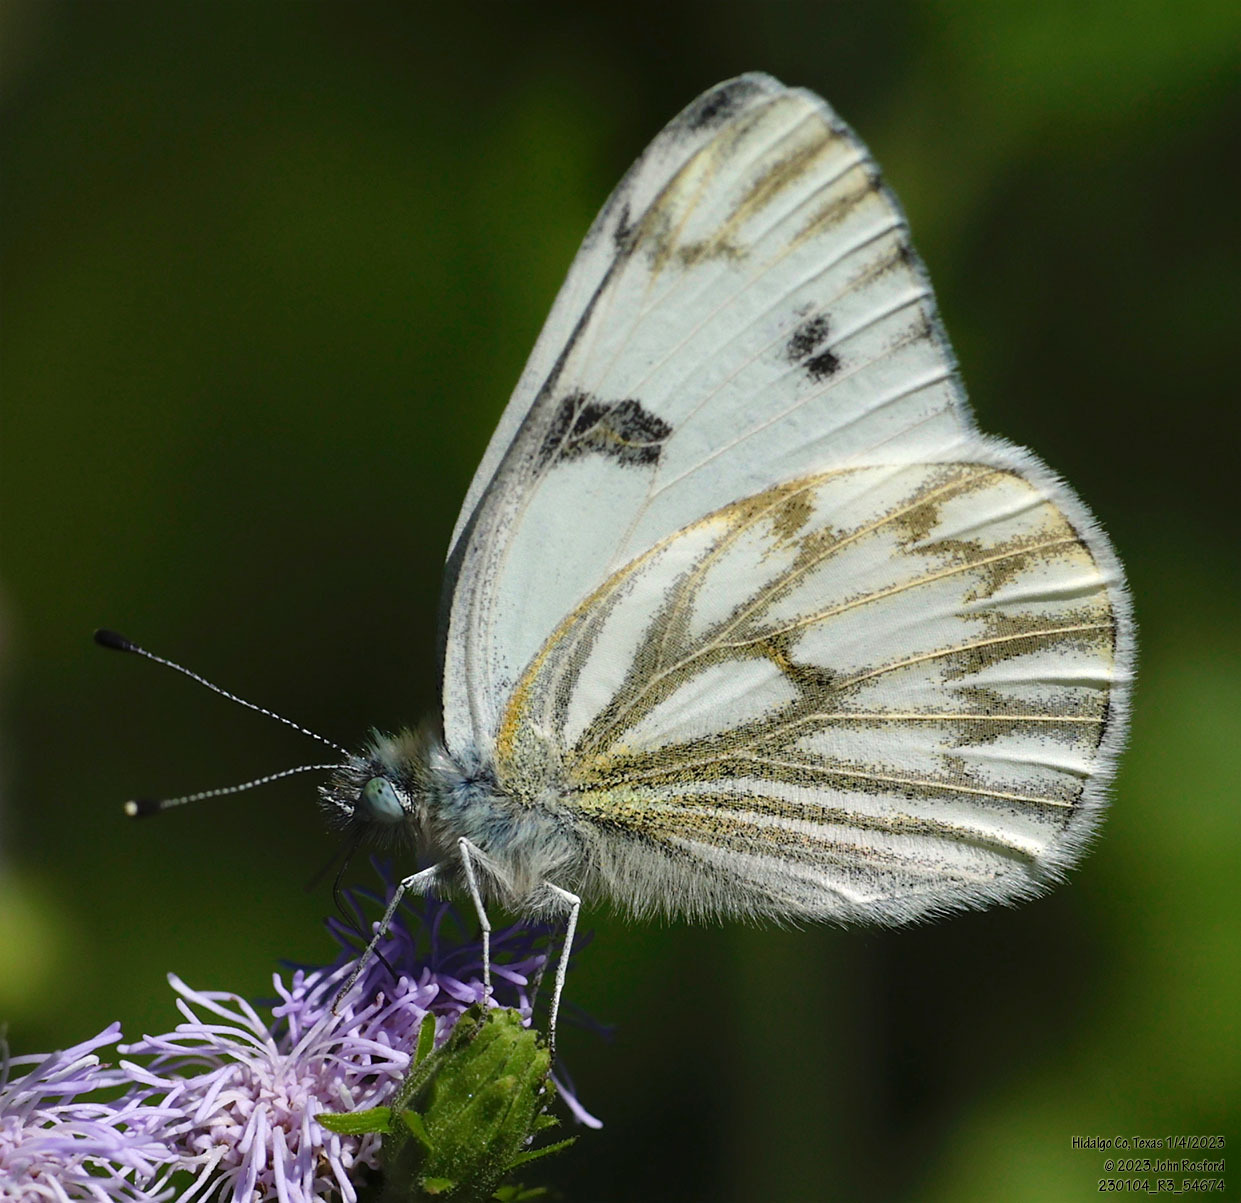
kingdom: Animalia
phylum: Arthropoda
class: Insecta
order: Lepidoptera
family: Pieridae
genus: Pontia
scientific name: Pontia protodice
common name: Checkered white
